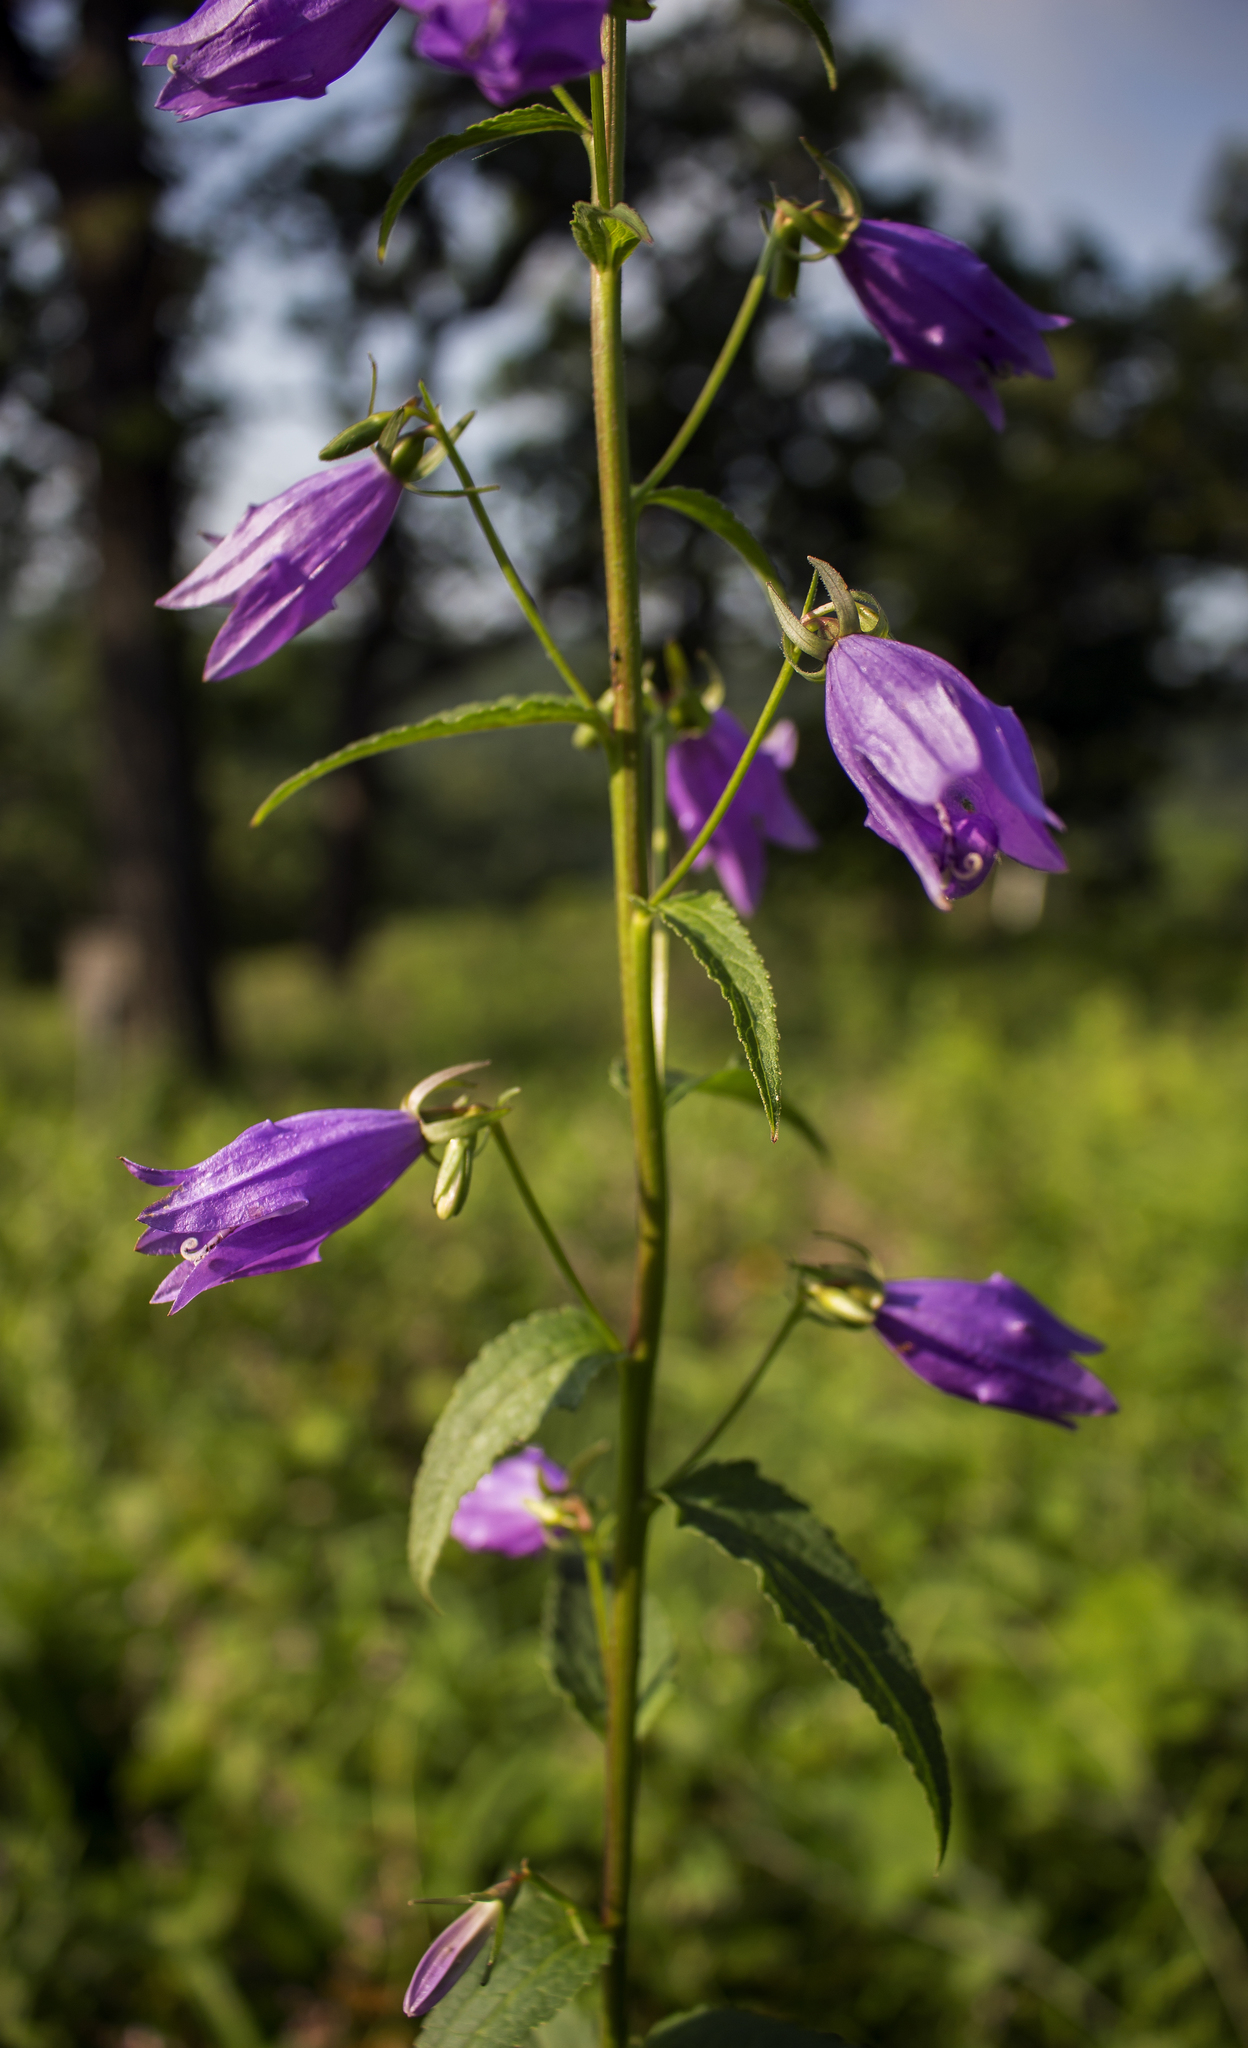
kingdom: Plantae
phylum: Tracheophyta
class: Magnoliopsida
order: Asterales
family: Campanulaceae
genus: Campanula
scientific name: Campanula rapunculoides
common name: Creeping bellflower
